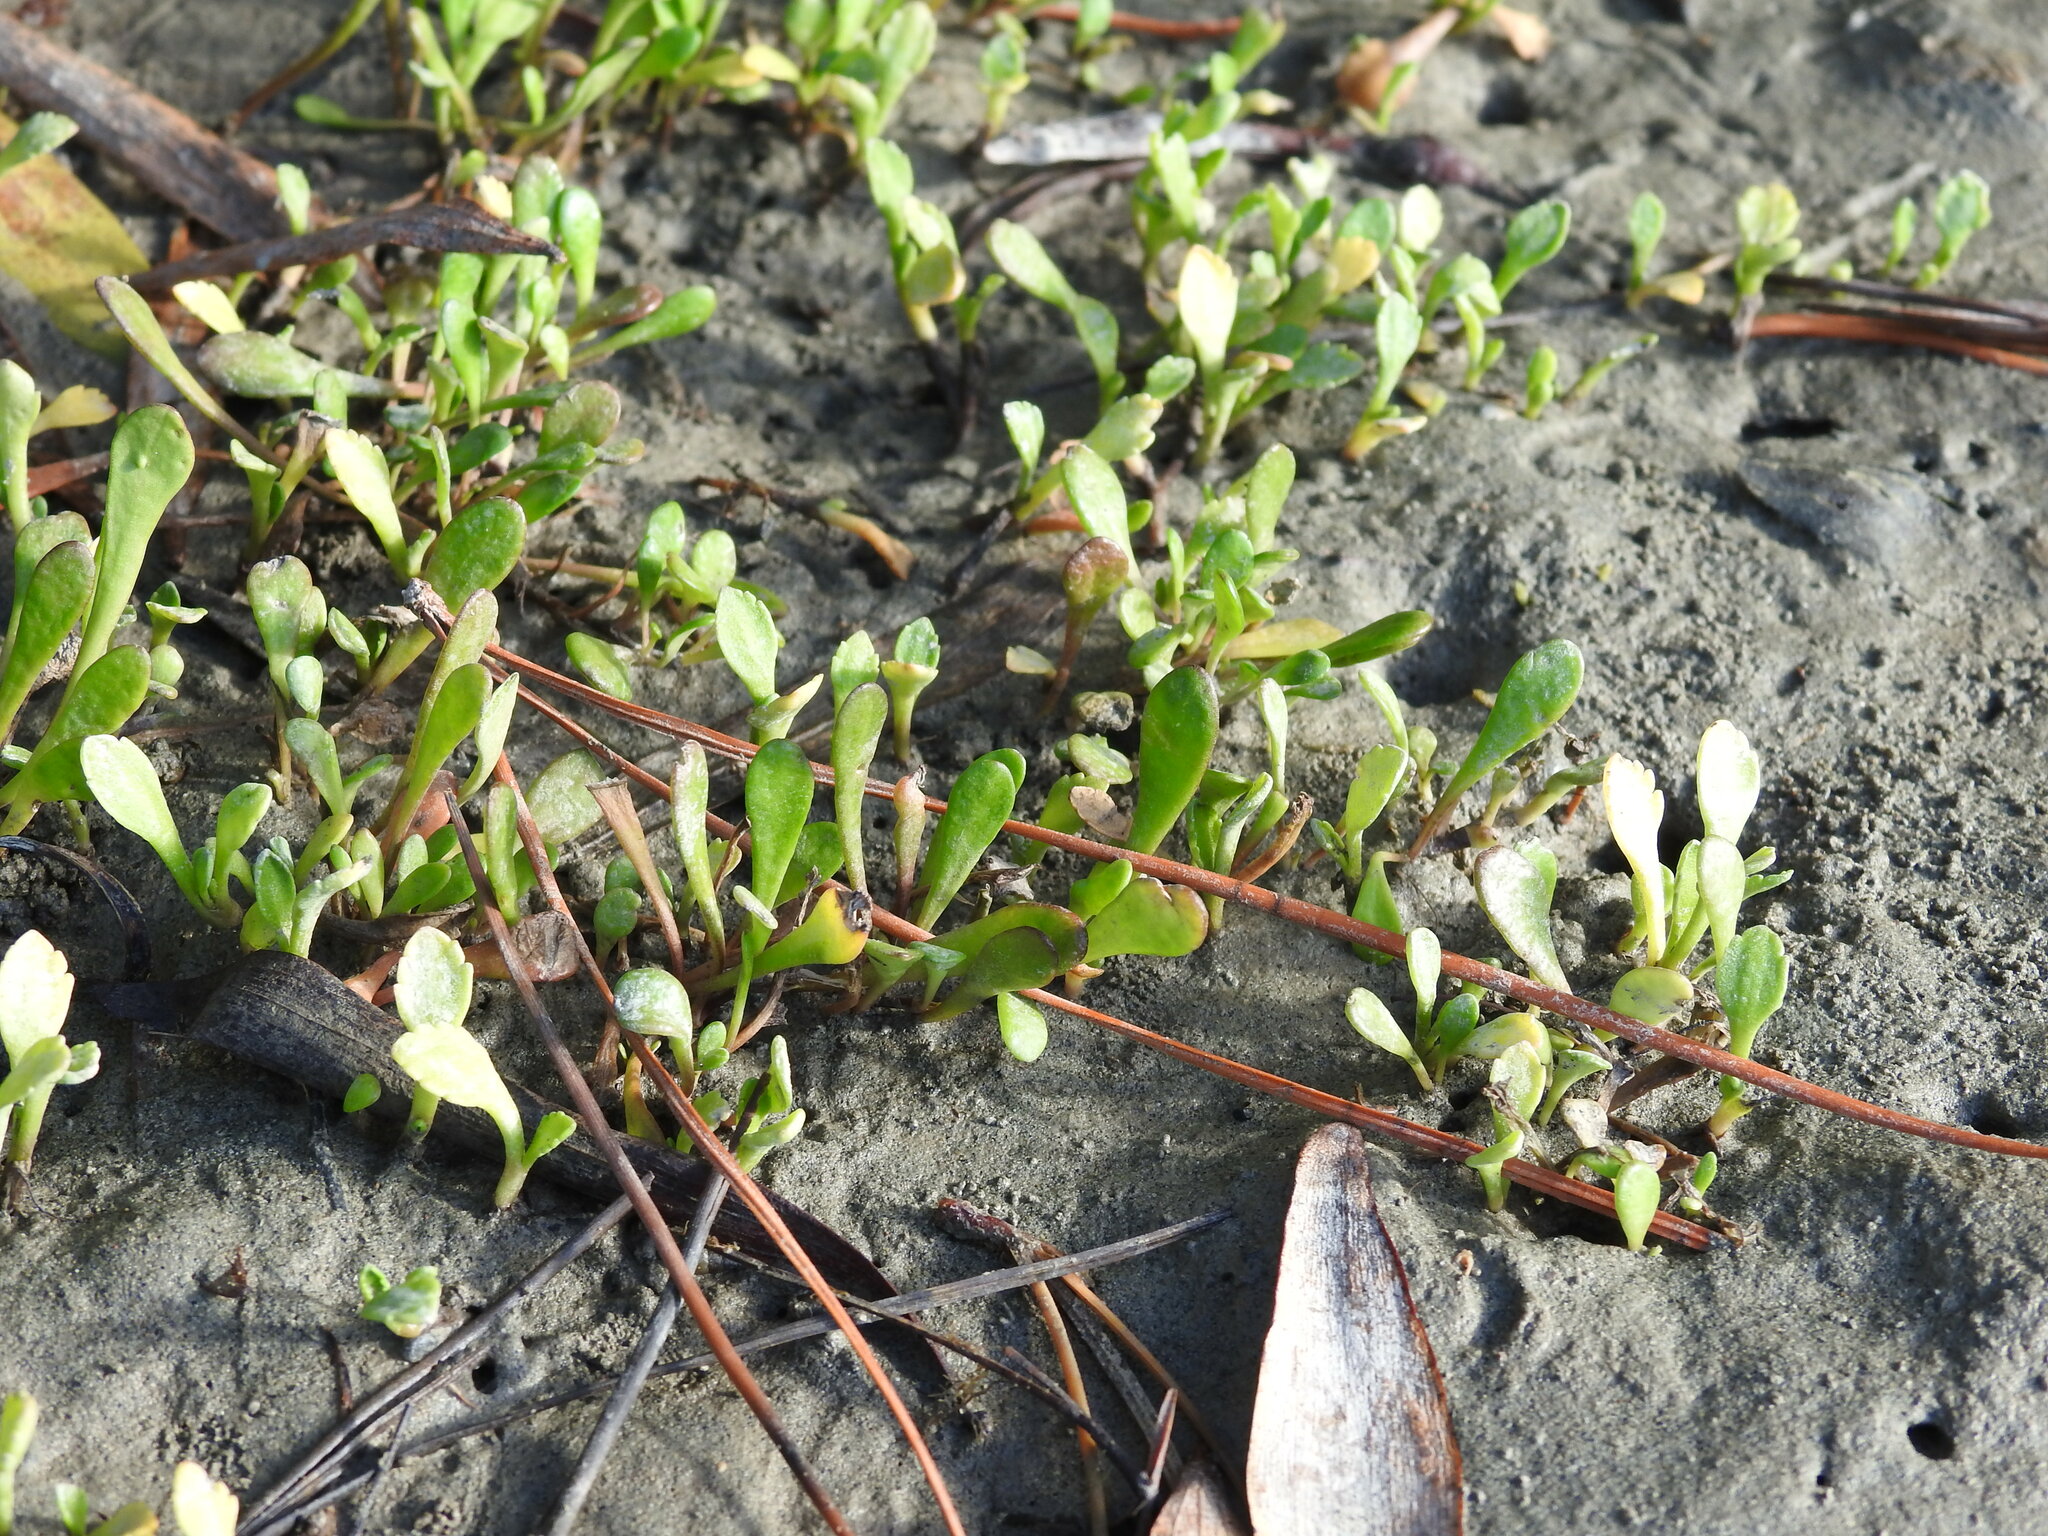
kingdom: Plantae
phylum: Tracheophyta
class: Magnoliopsida
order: Asterales
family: Asteraceae
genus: Leptinella
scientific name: Leptinella dioica
